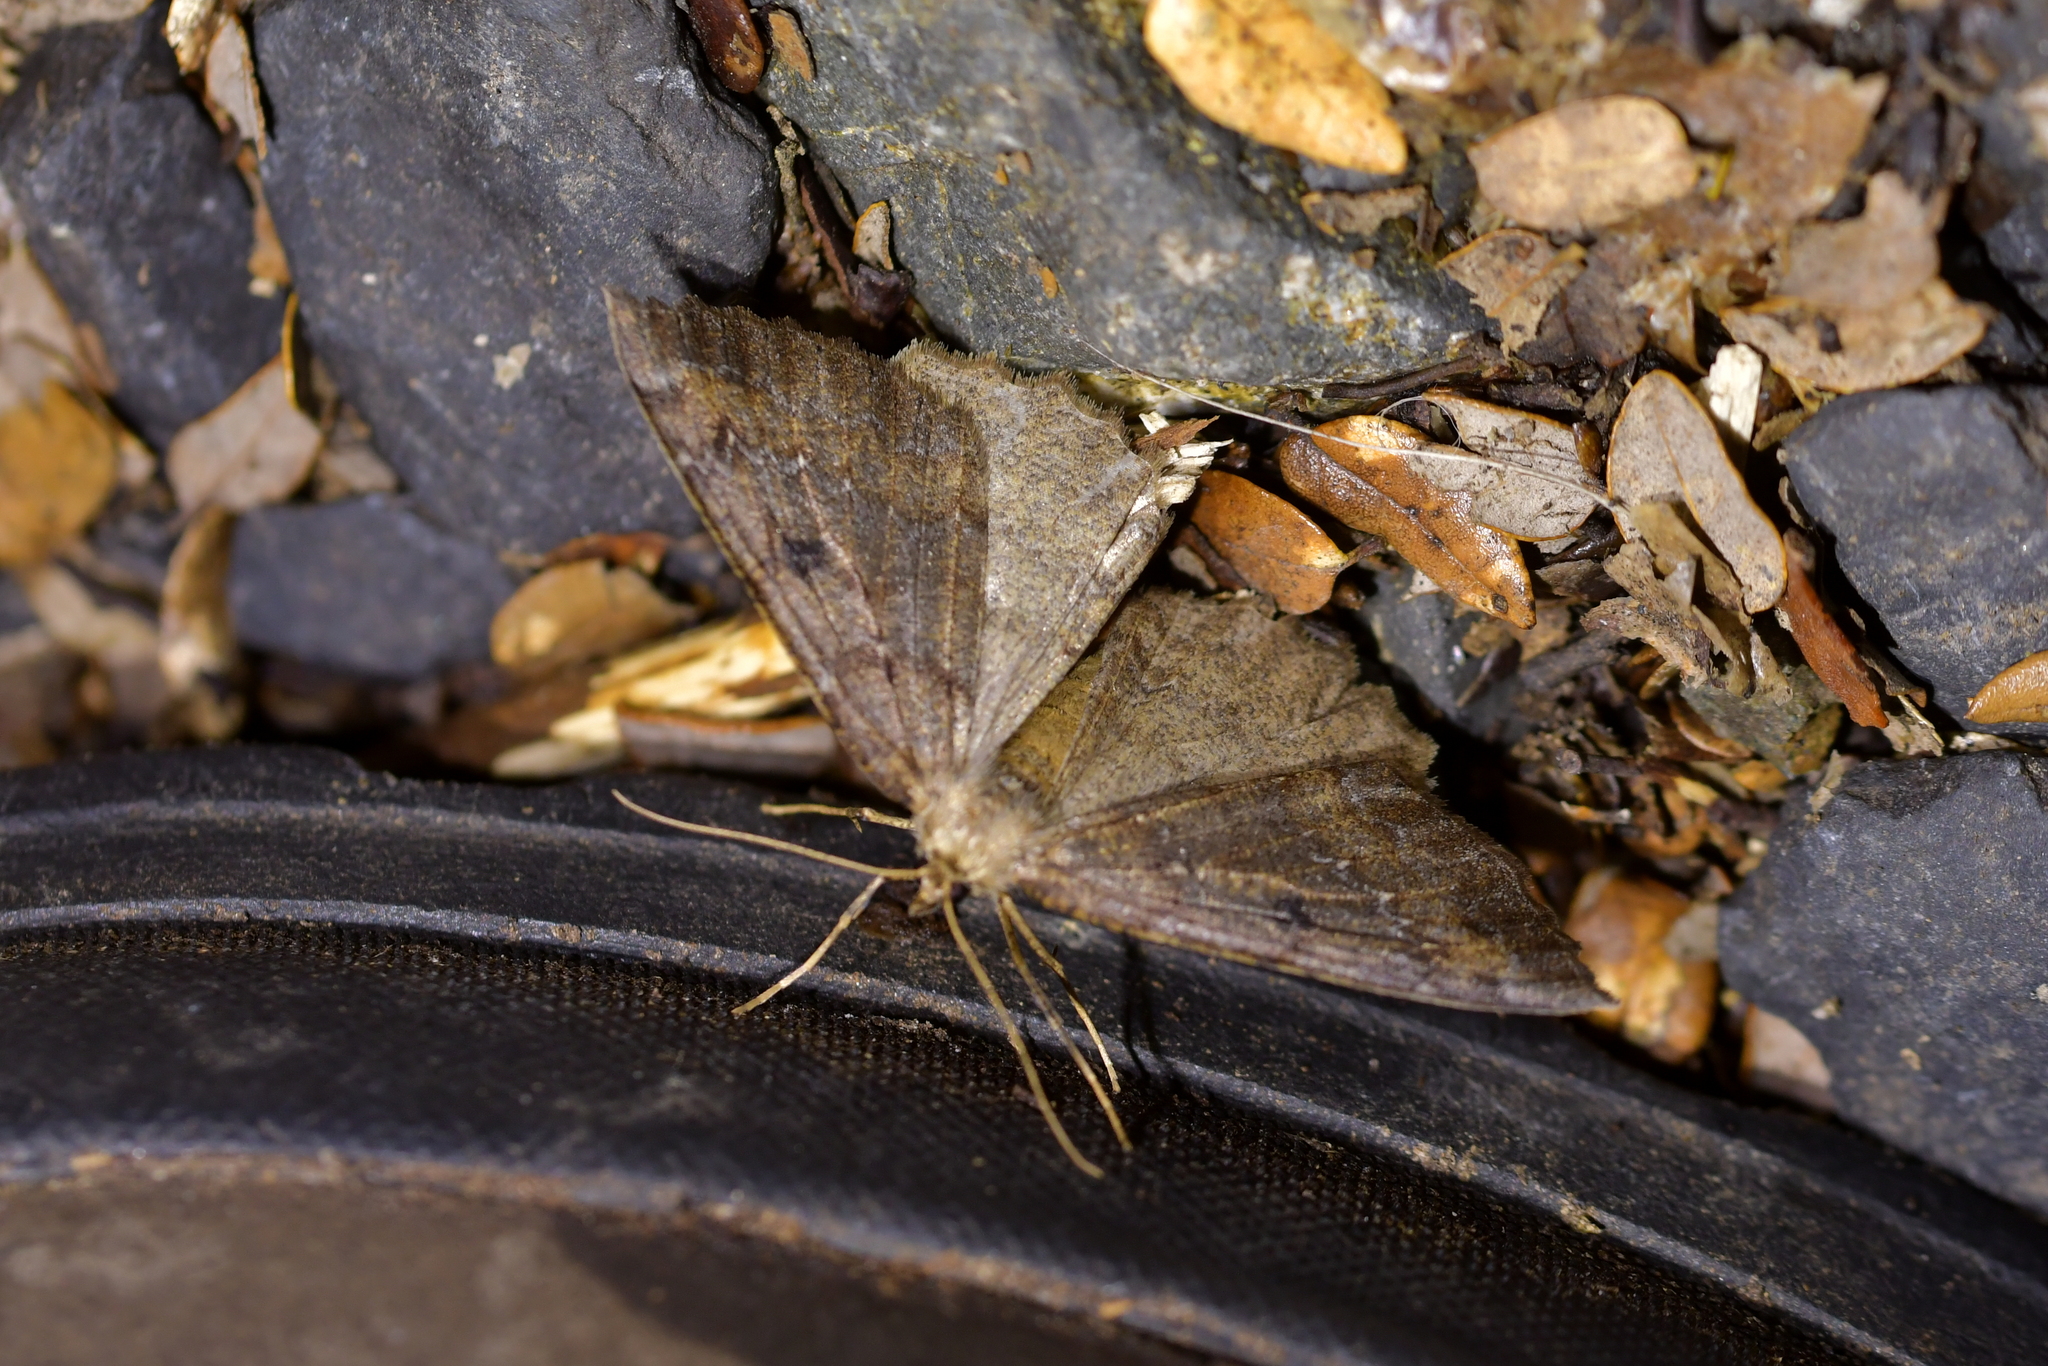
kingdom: Animalia
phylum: Arthropoda
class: Insecta
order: Lepidoptera
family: Geometridae
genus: Cleora
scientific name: Cleora scriptaria
